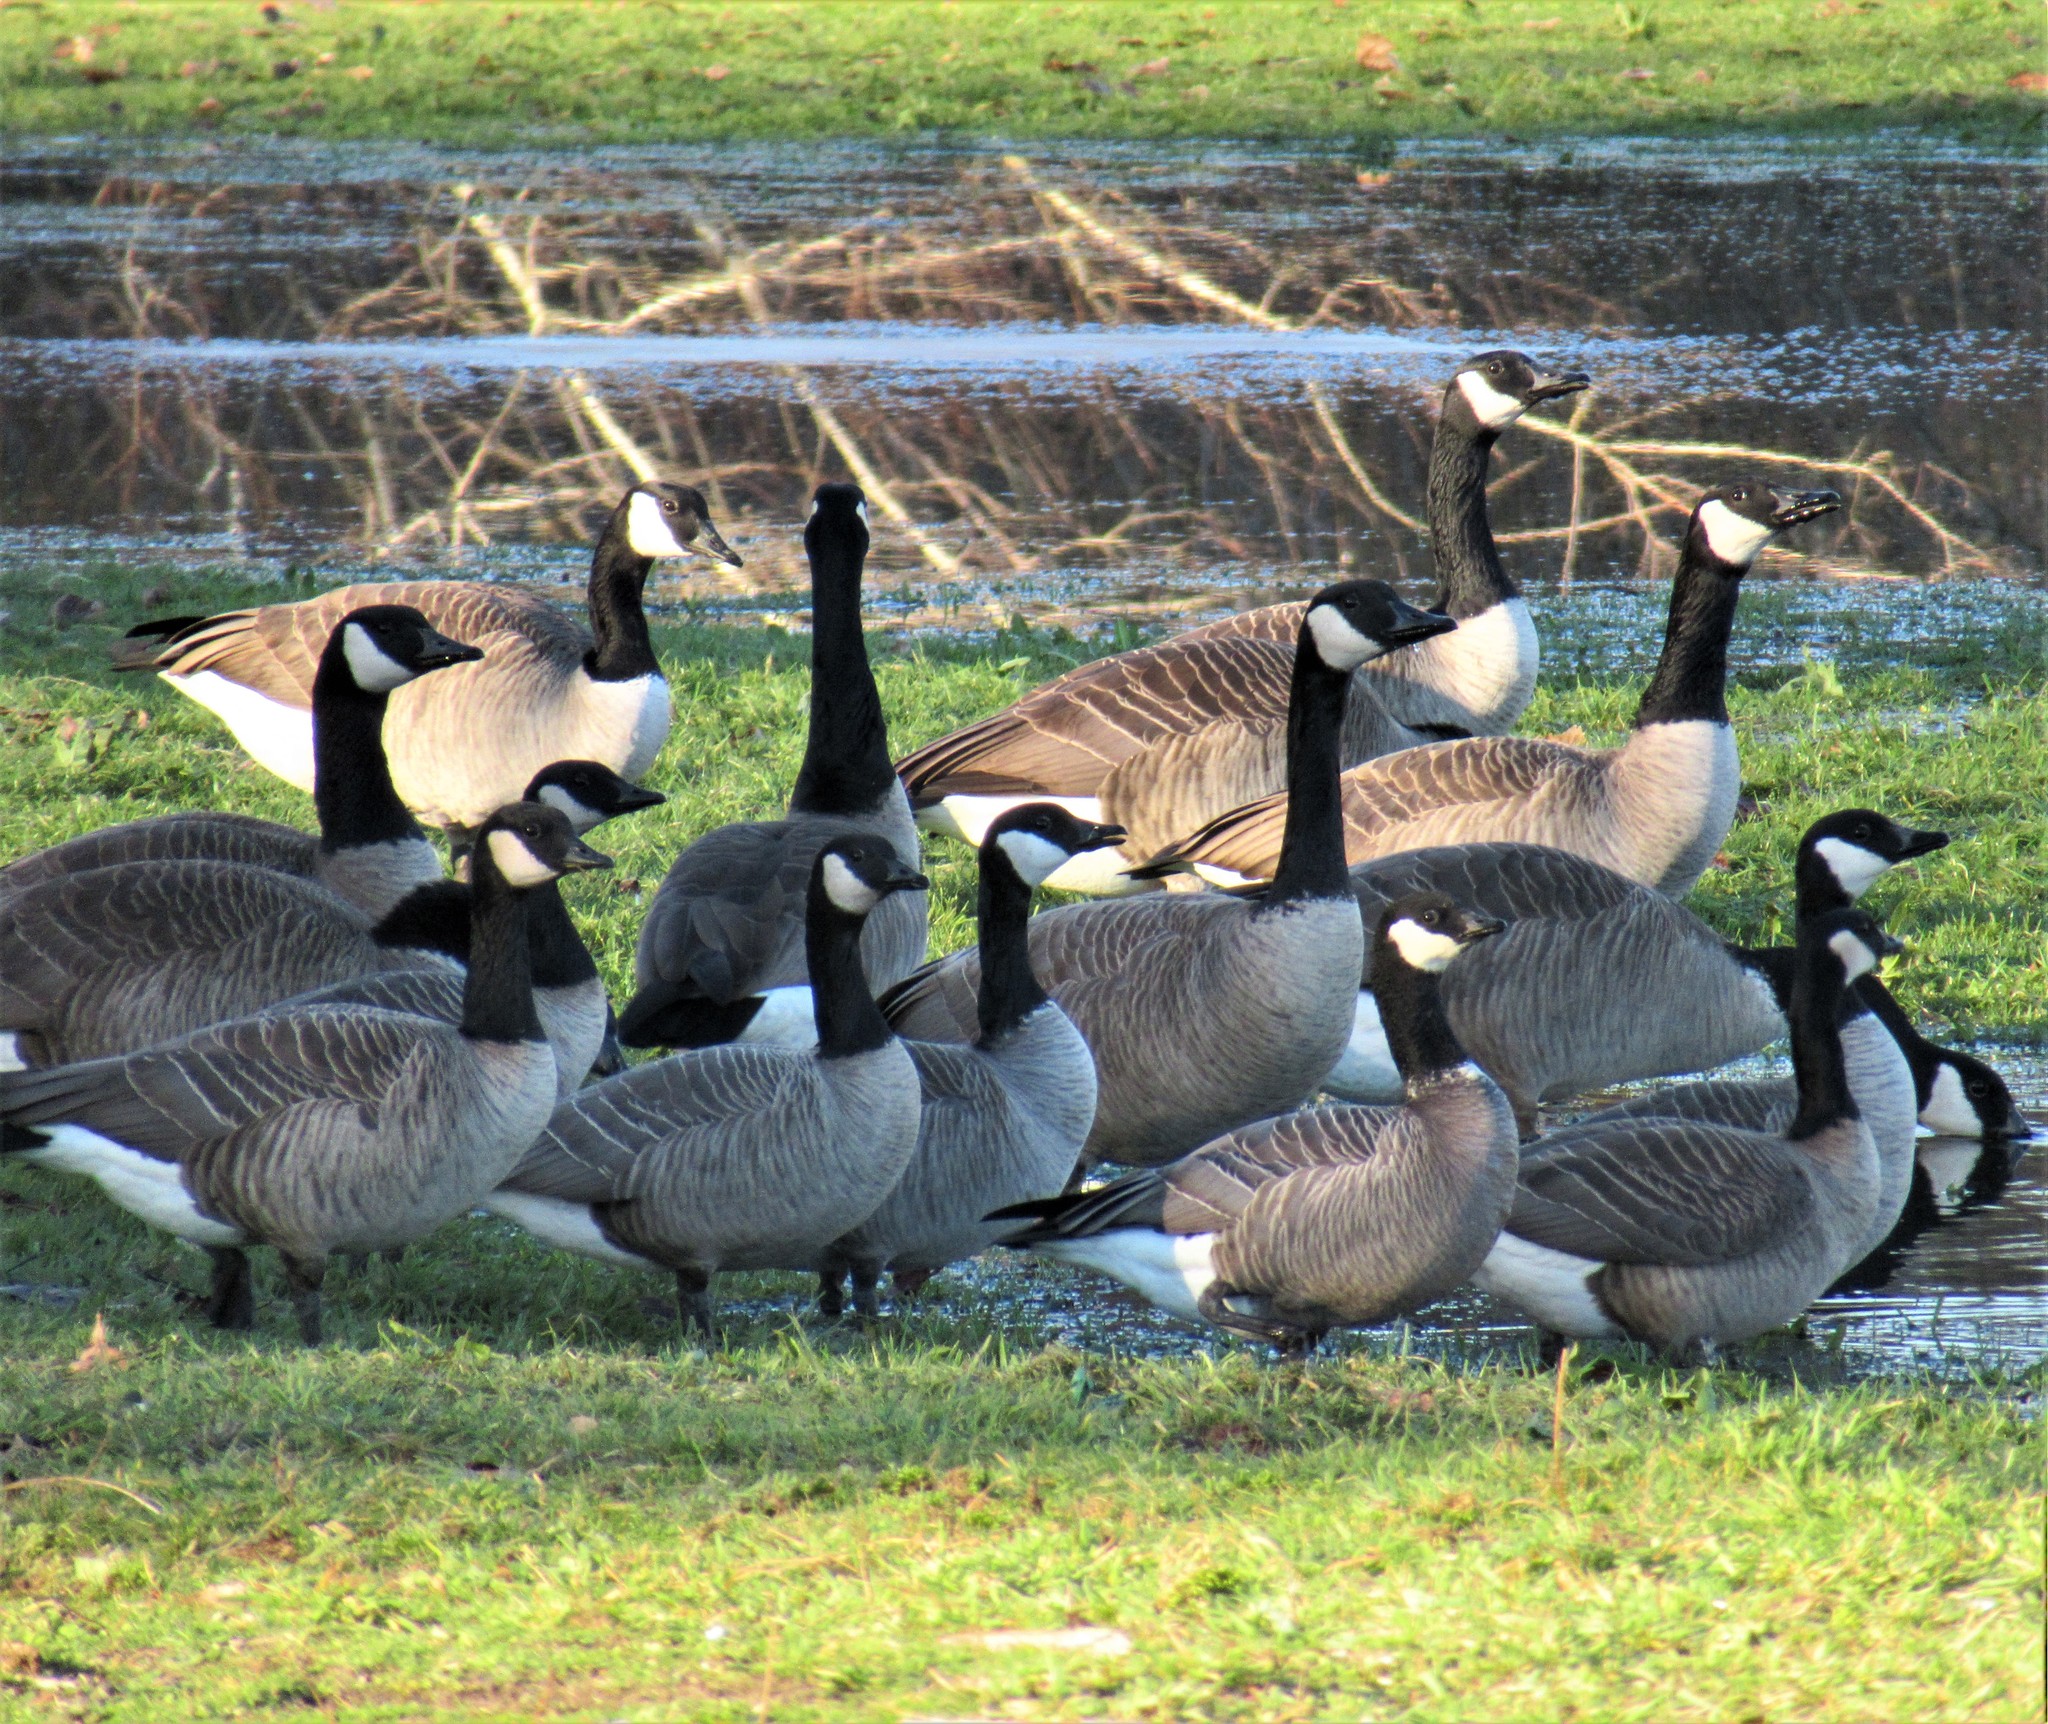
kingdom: Animalia
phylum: Chordata
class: Aves
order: Anseriformes
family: Anatidae
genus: Branta
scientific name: Branta hutchinsii
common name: Cackling goose
